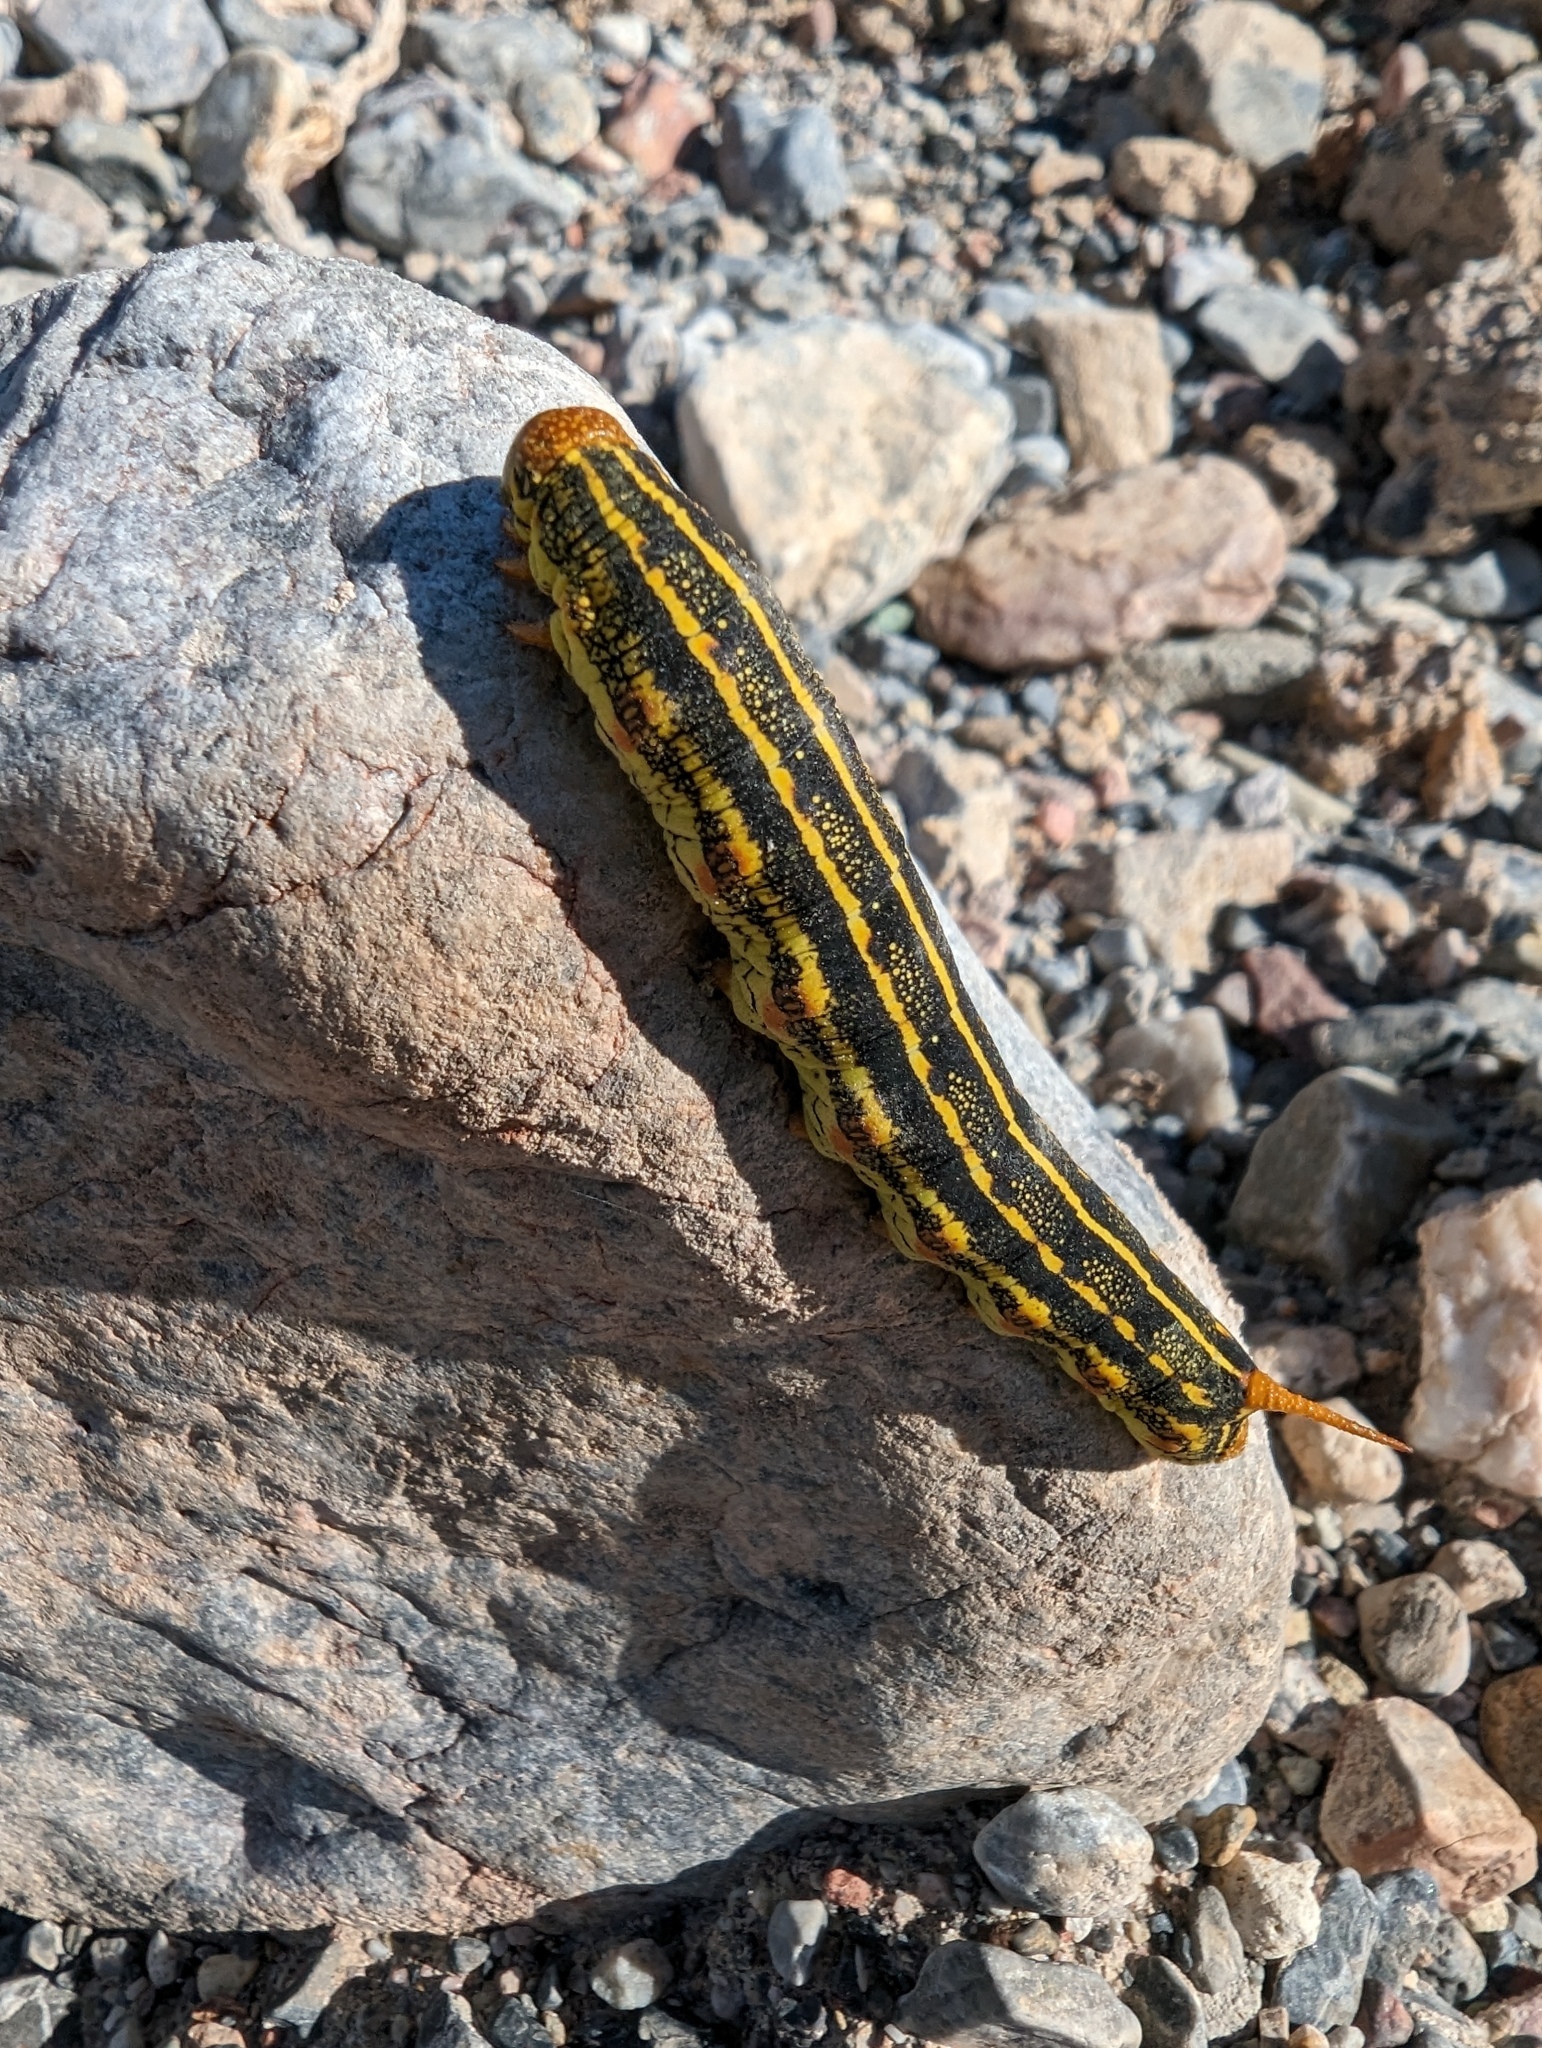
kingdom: Animalia
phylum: Arthropoda
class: Insecta
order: Lepidoptera
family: Sphingidae
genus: Hyles
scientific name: Hyles lineata
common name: White-lined sphinx
